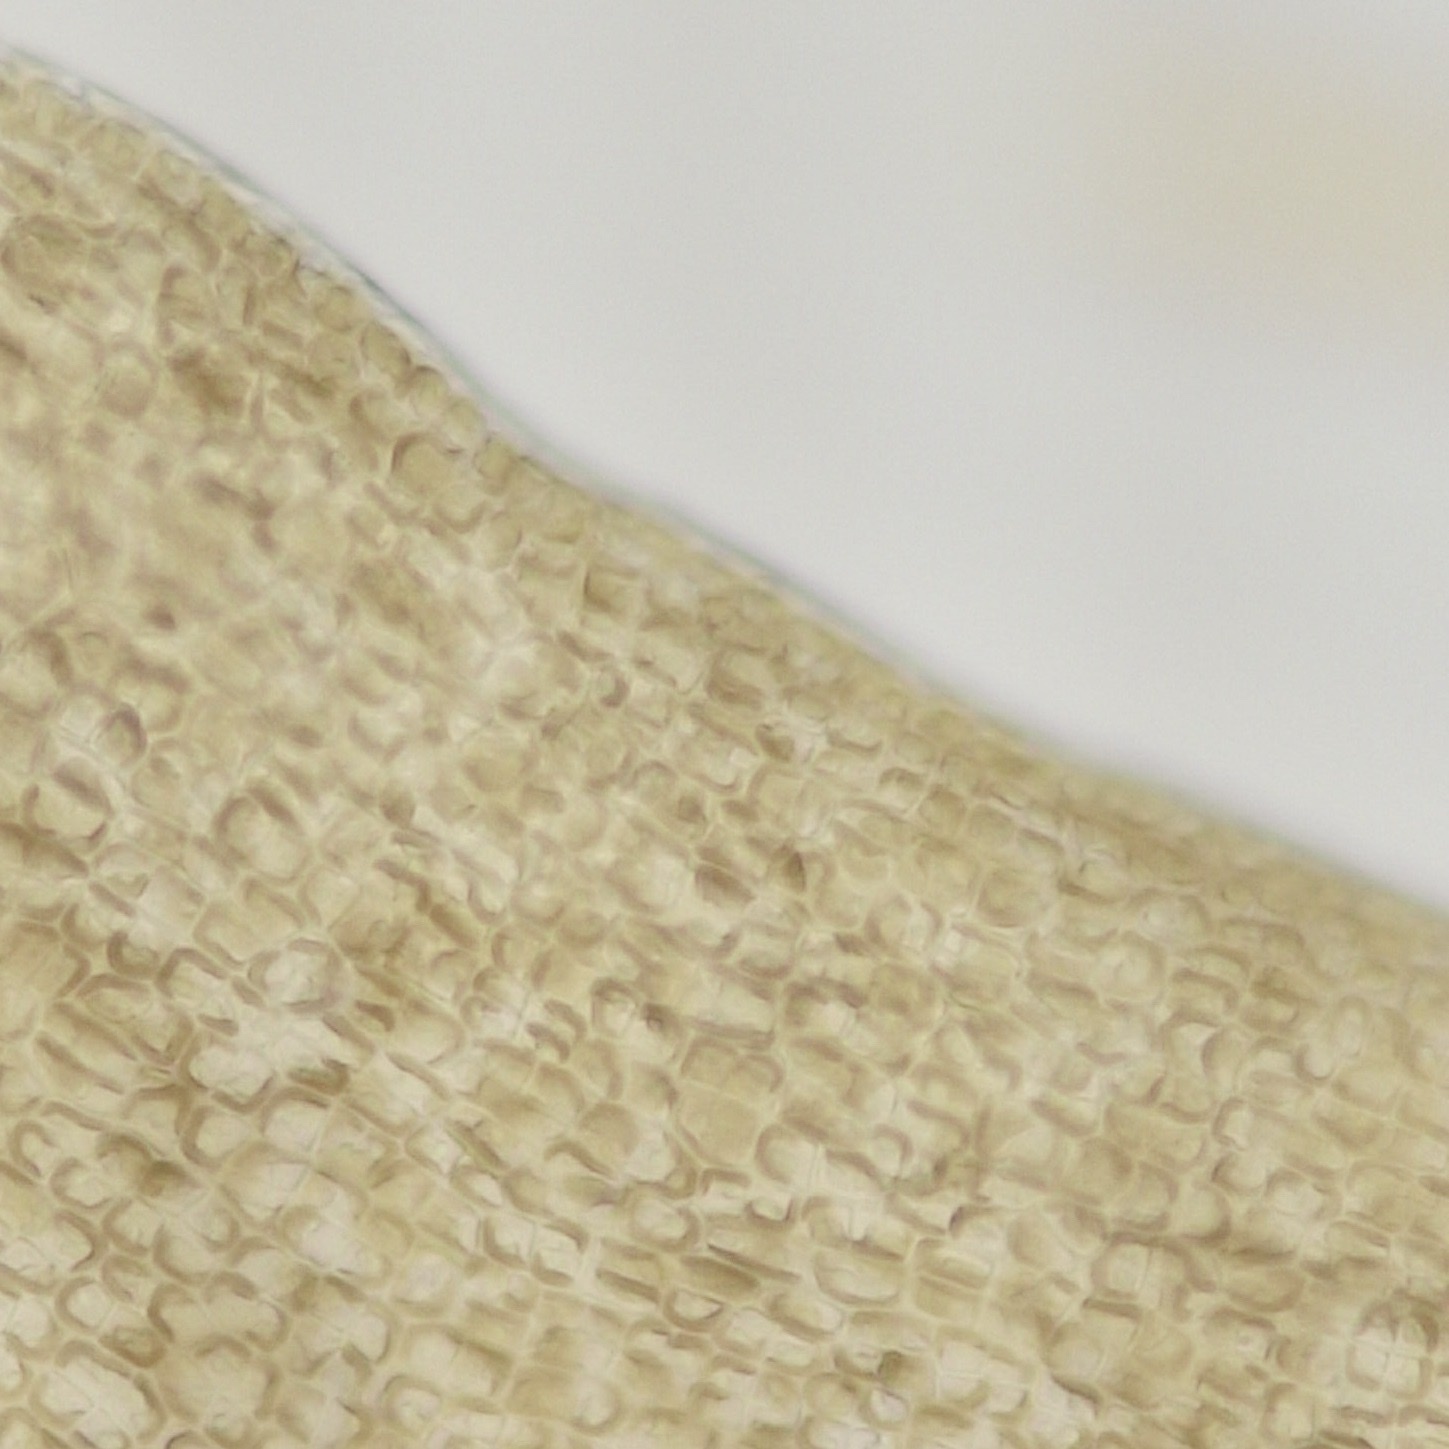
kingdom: Chromista
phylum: Ochrophyta
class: Phaeophyceae
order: Laminariales
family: Laminariaceae
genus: Saccharina
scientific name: Saccharina latissima
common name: Poor man's weather glass
